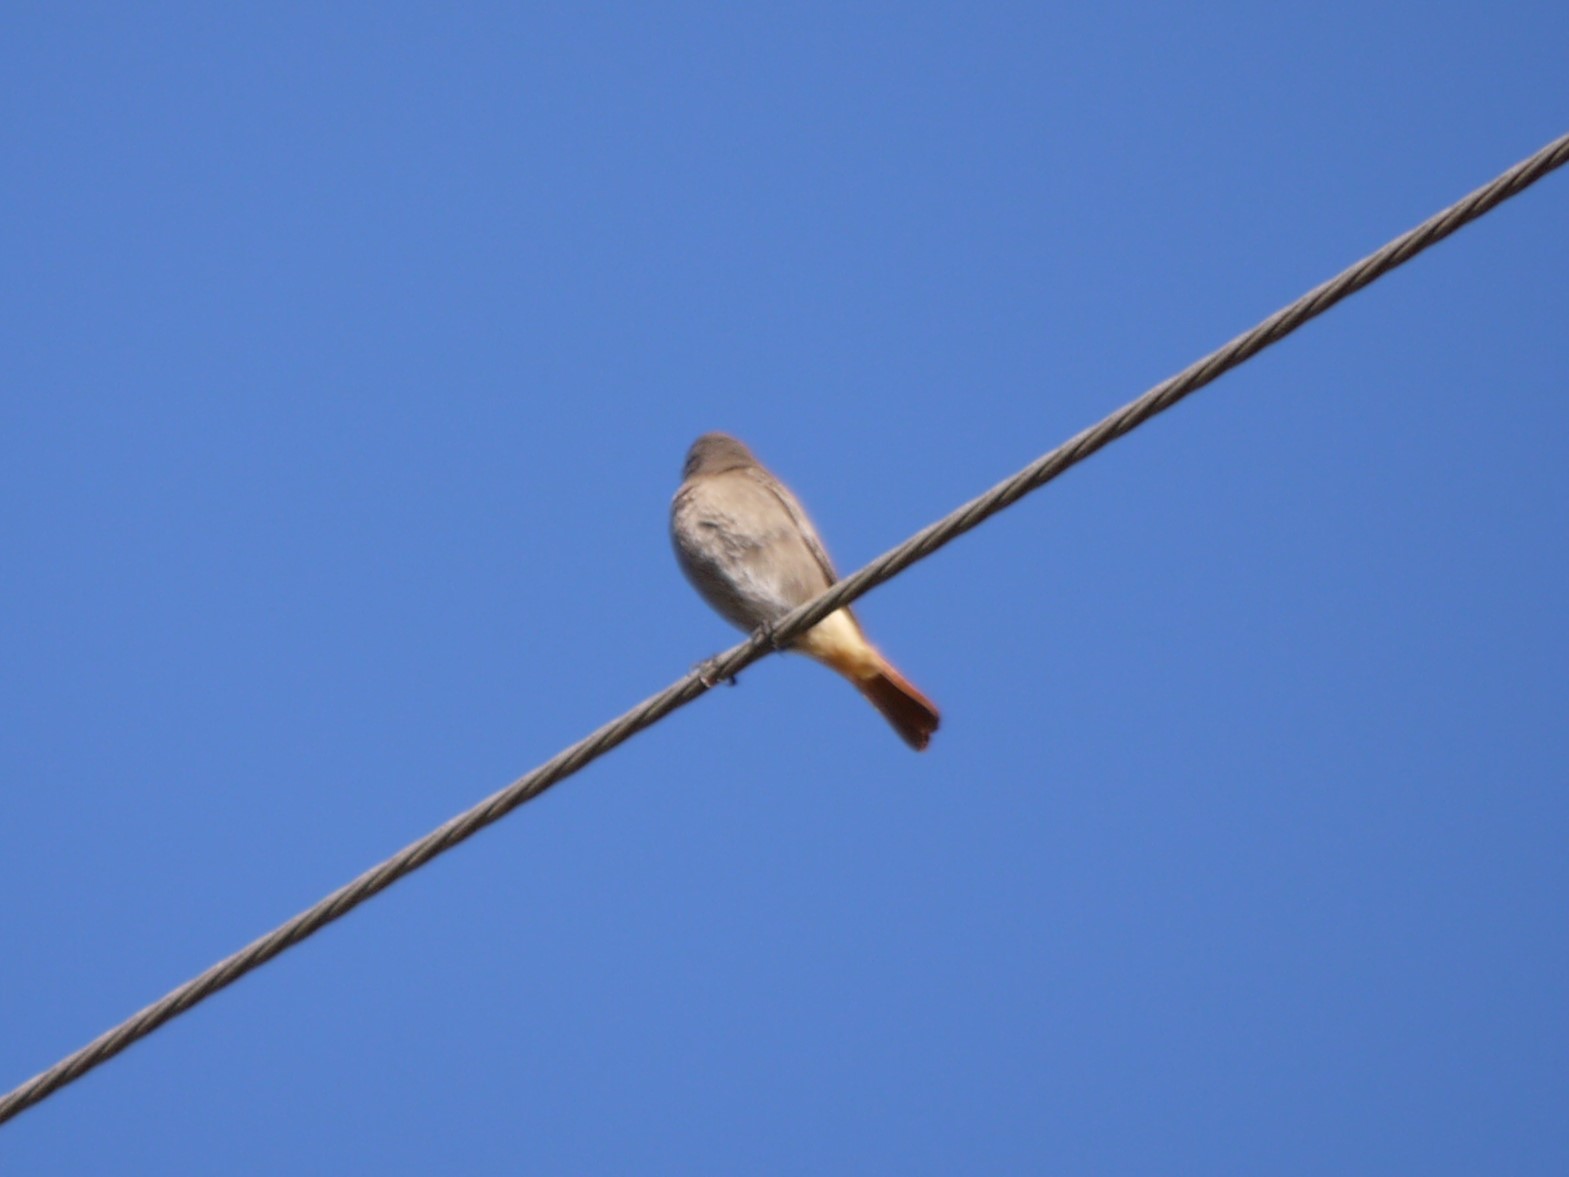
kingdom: Animalia
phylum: Chordata
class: Aves
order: Passeriformes
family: Muscicapidae
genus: Phoenicurus
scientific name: Phoenicurus ochruros
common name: Black redstart
